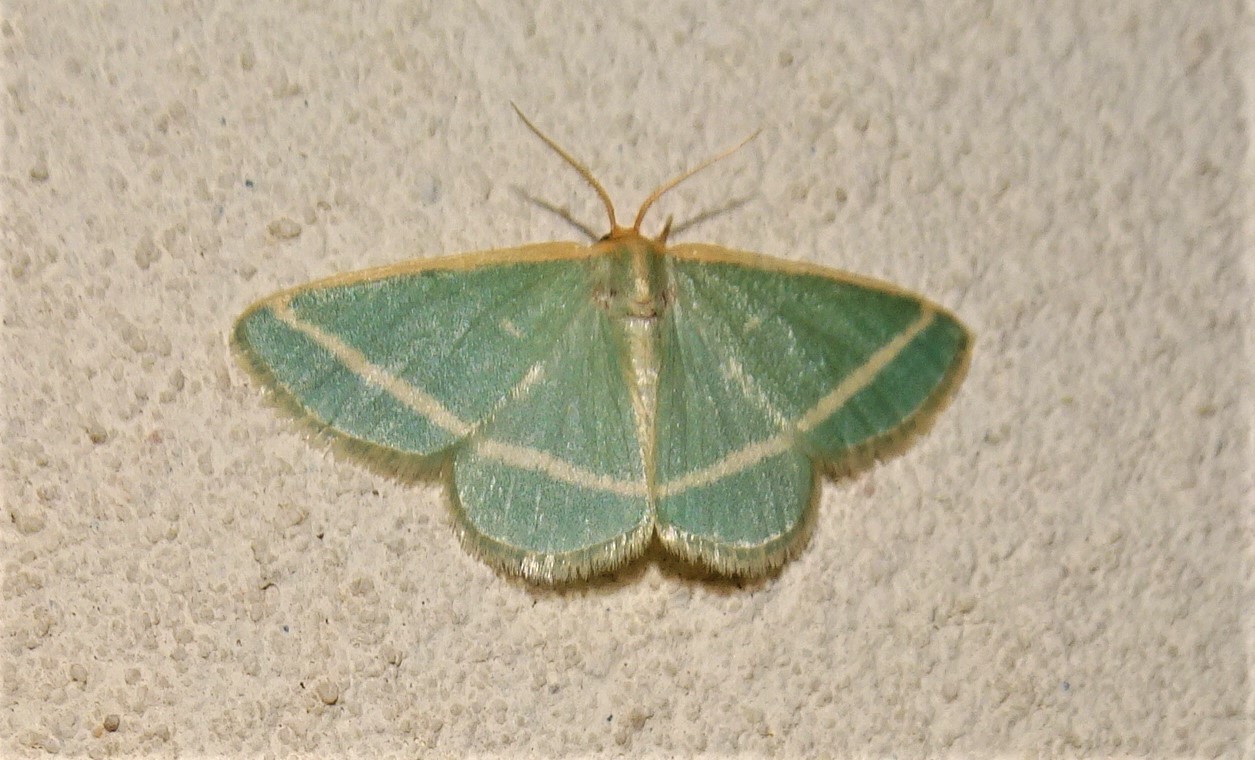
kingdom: Animalia
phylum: Arthropoda
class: Insecta
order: Lepidoptera
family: Geometridae
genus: Mixocera
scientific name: Mixocera latilineata
